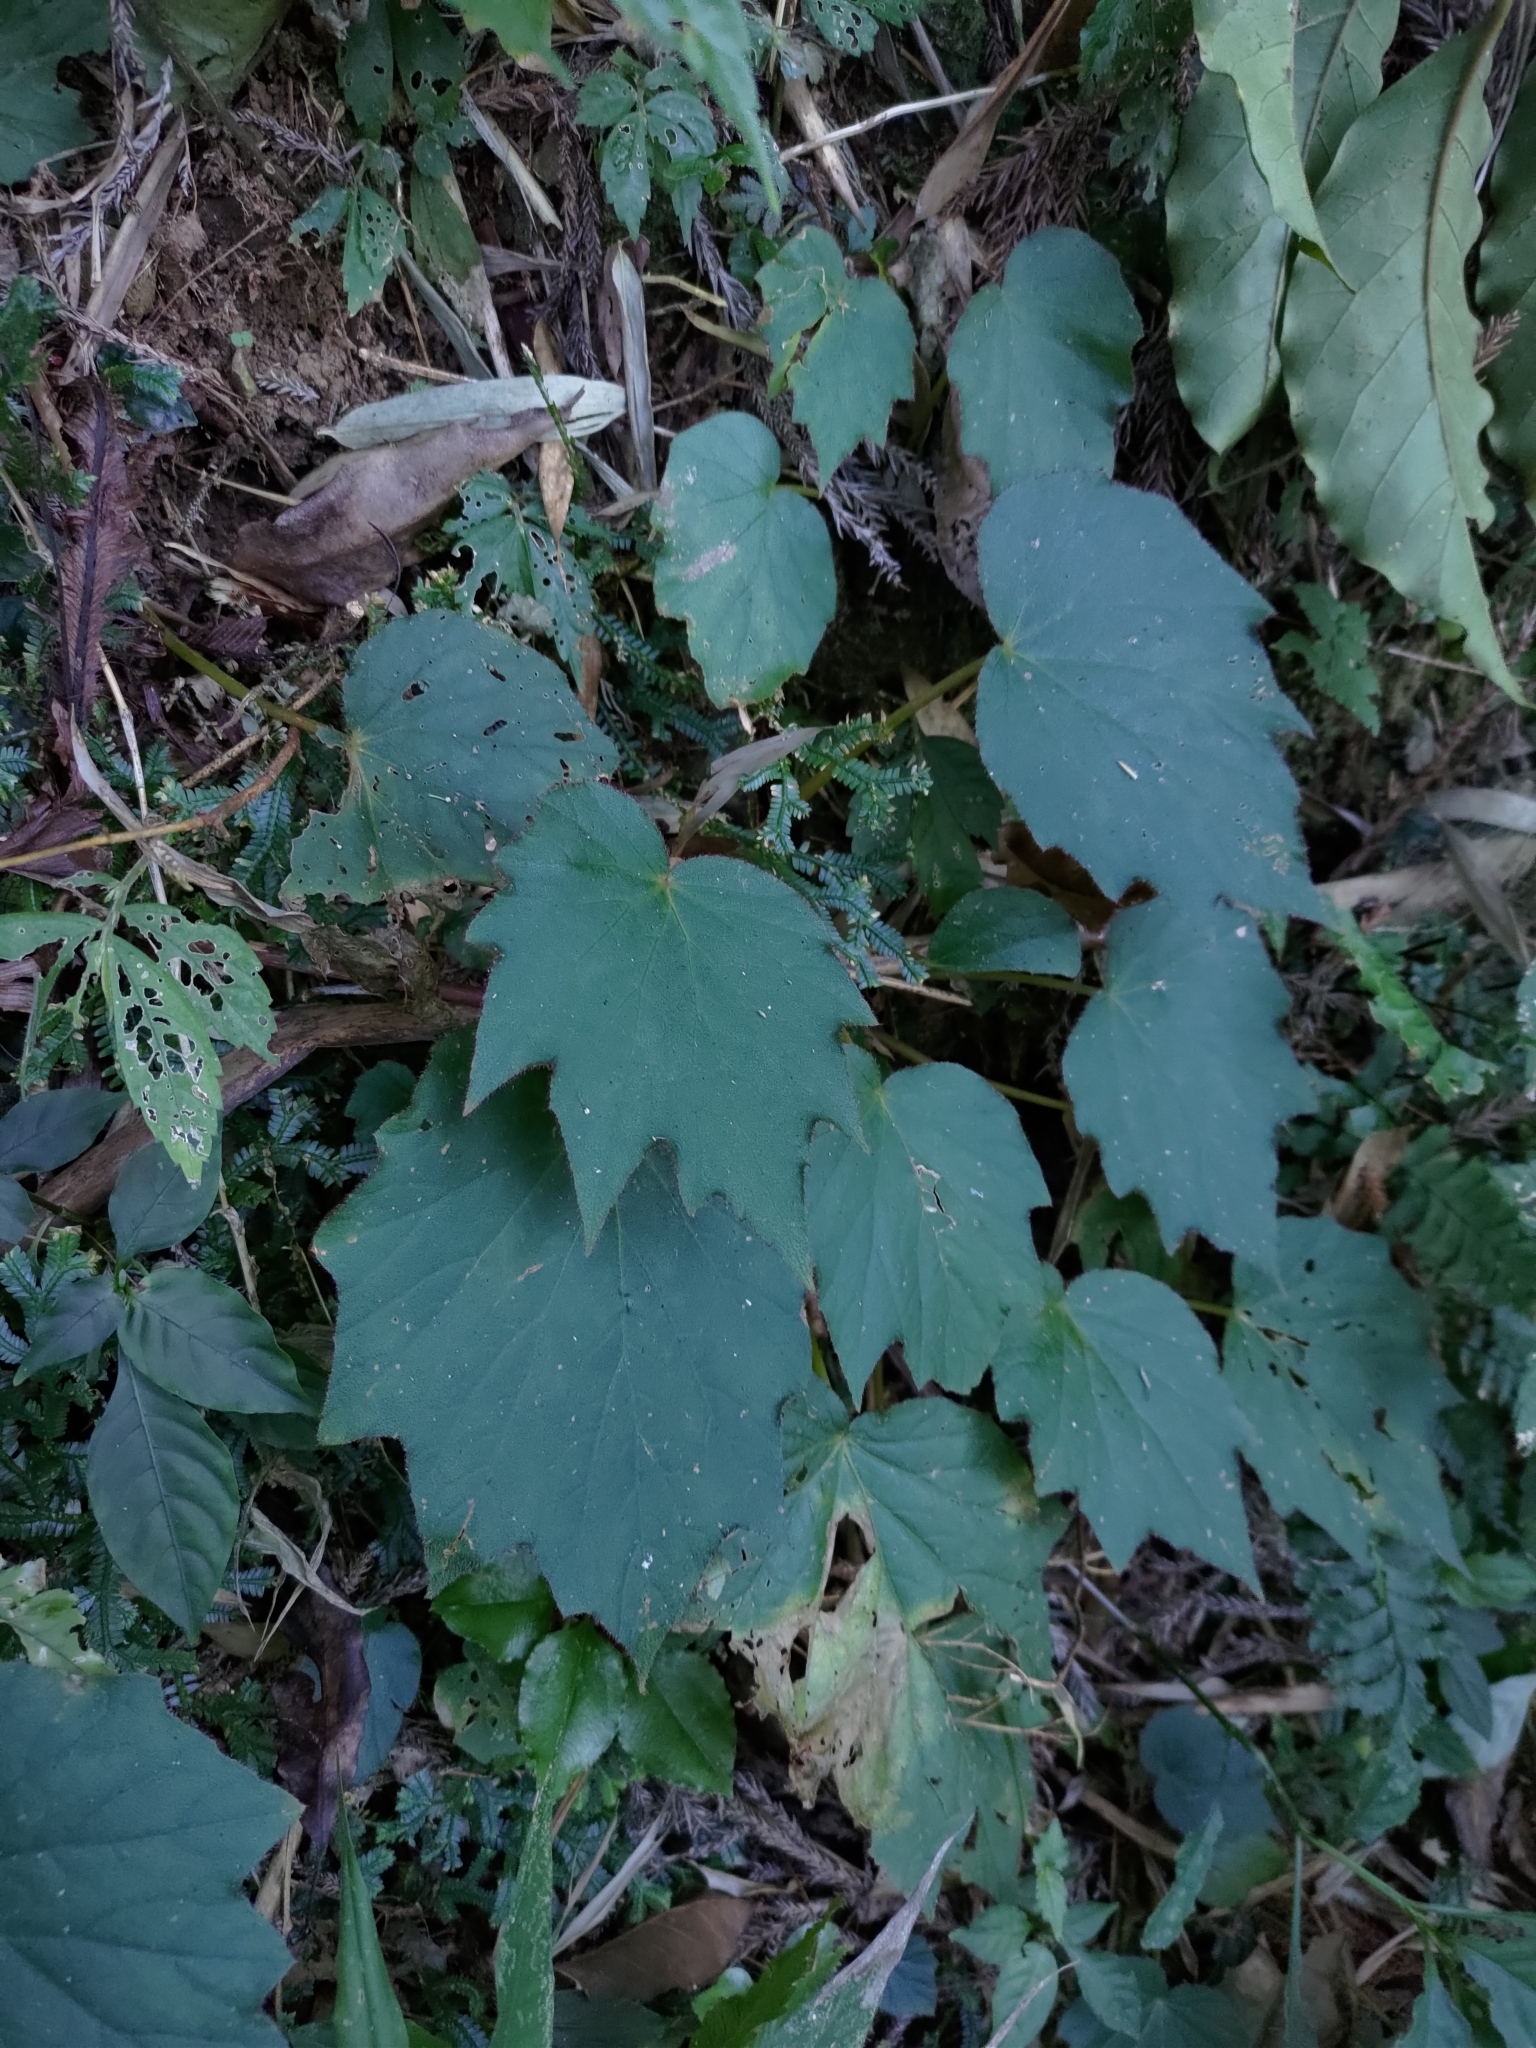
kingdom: Plantae
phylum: Tracheophyta
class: Magnoliopsida
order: Cucurbitales
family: Begoniaceae
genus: Begonia
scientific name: Begonia palmata
